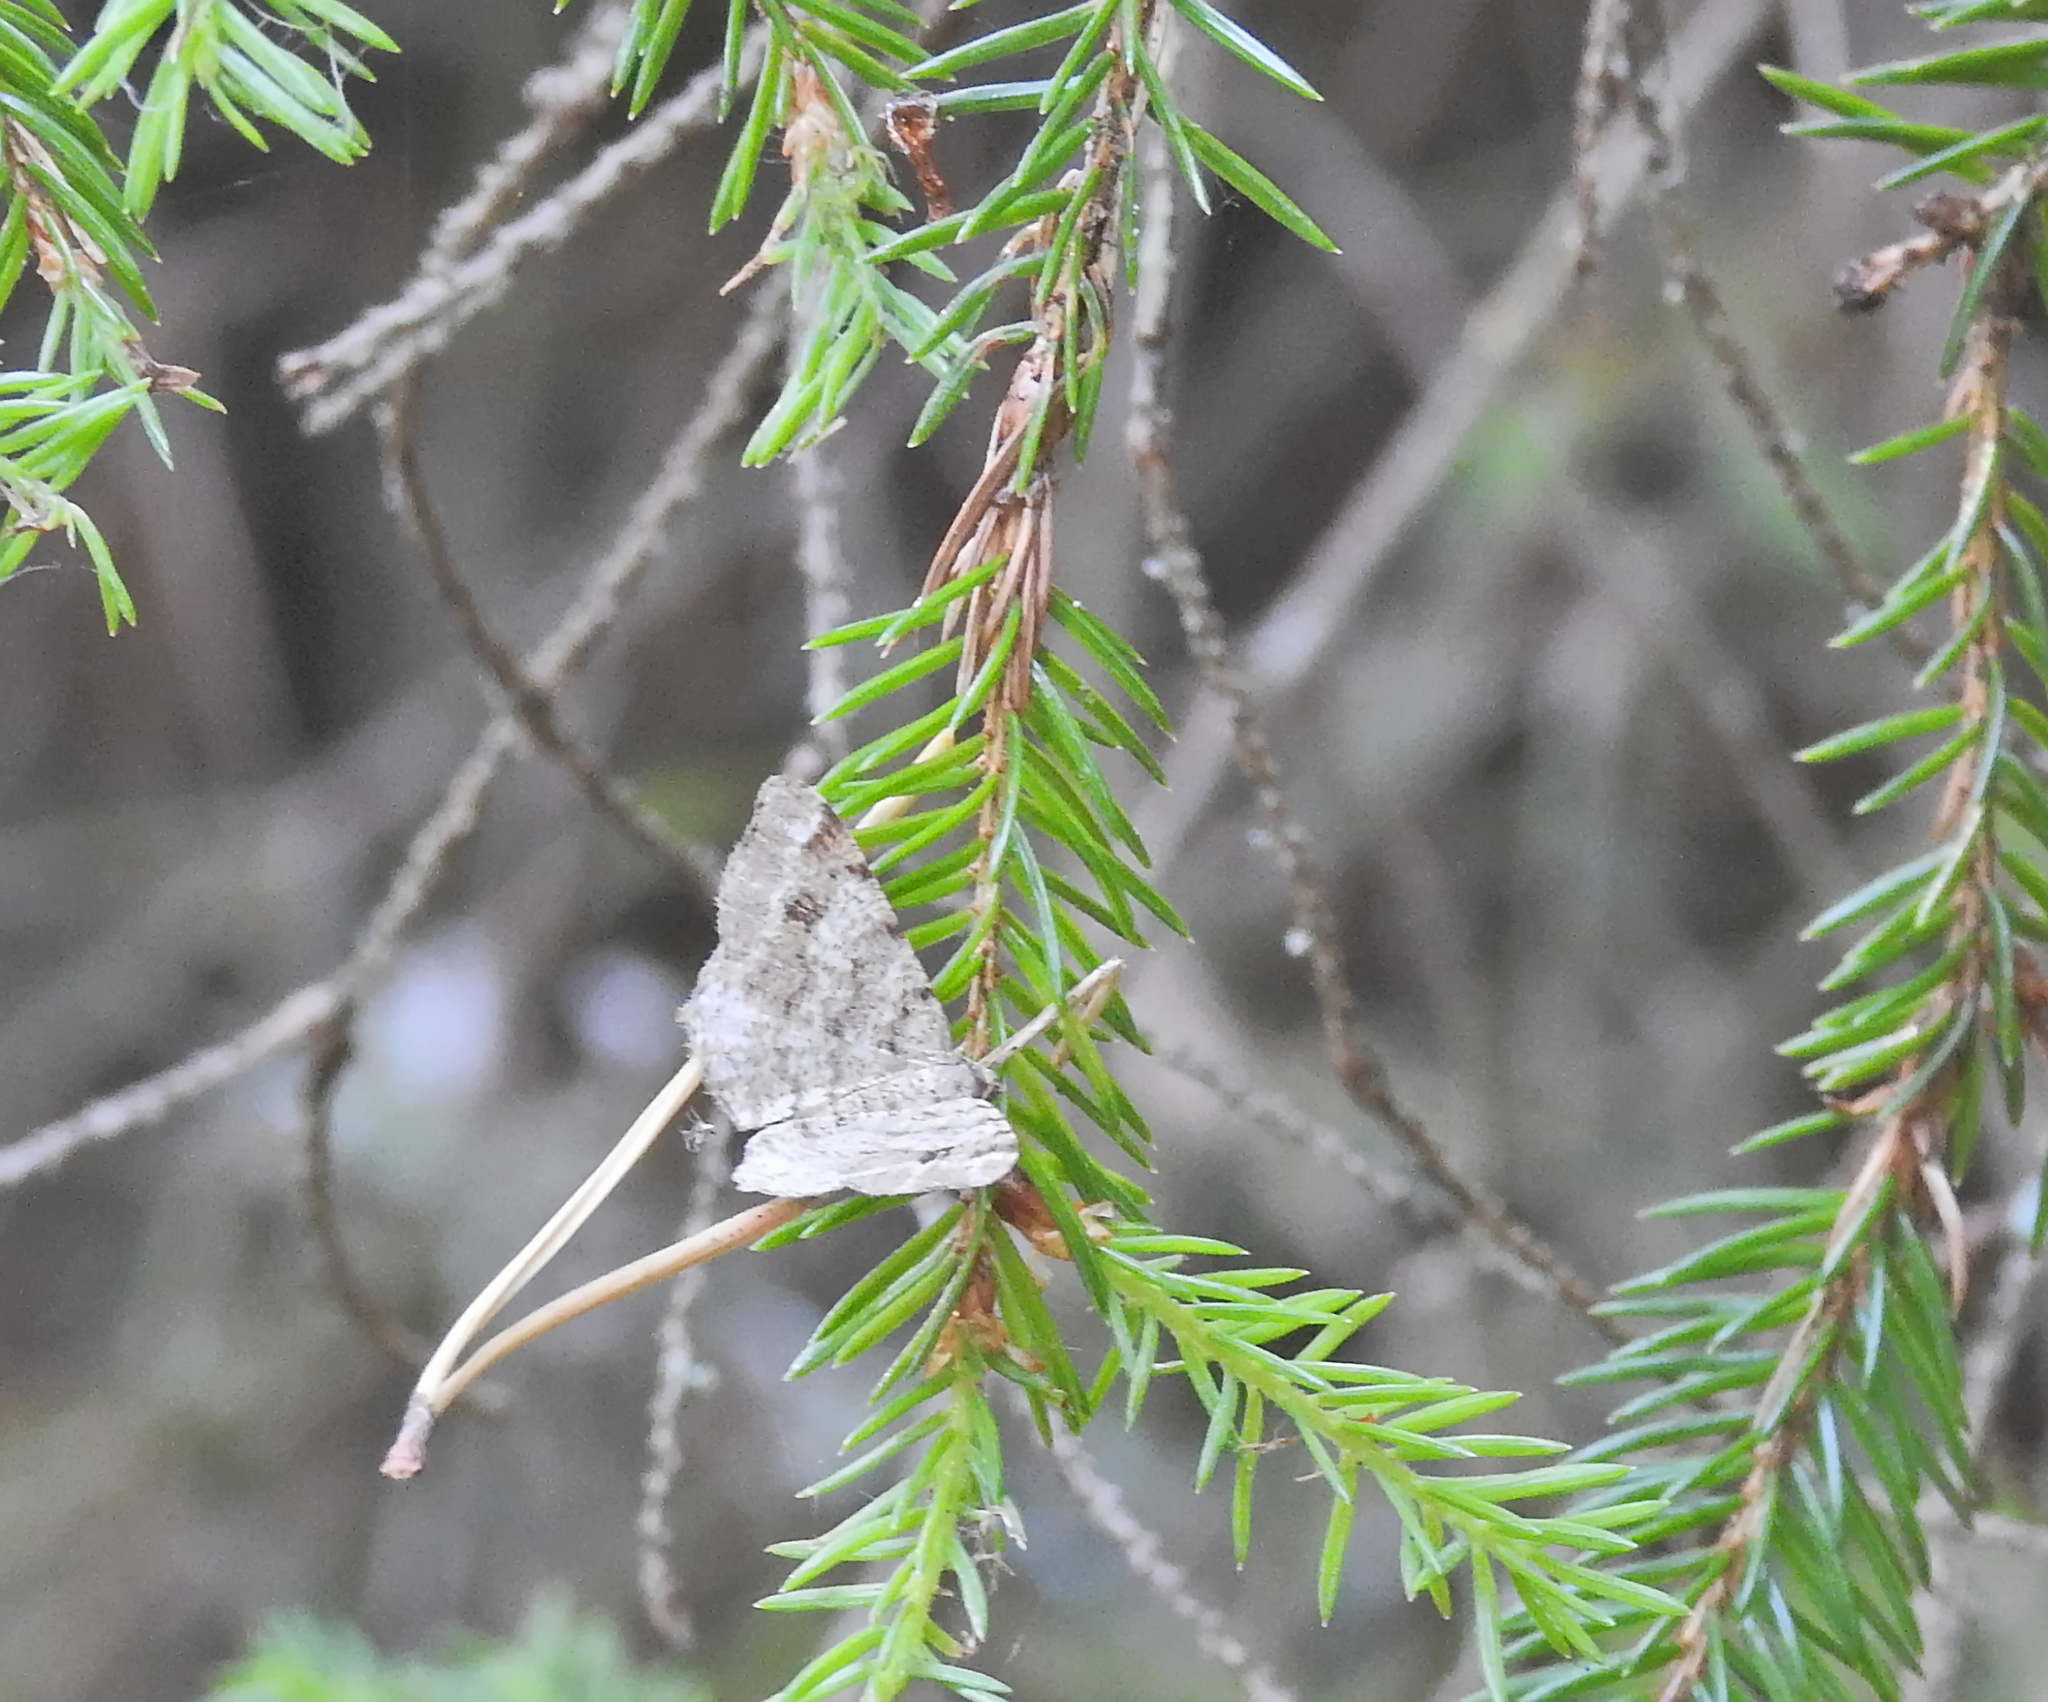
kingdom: Animalia
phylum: Arthropoda
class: Insecta
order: Lepidoptera
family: Geometridae
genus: Macaria
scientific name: Macaria signaria
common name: Dusky peacock
